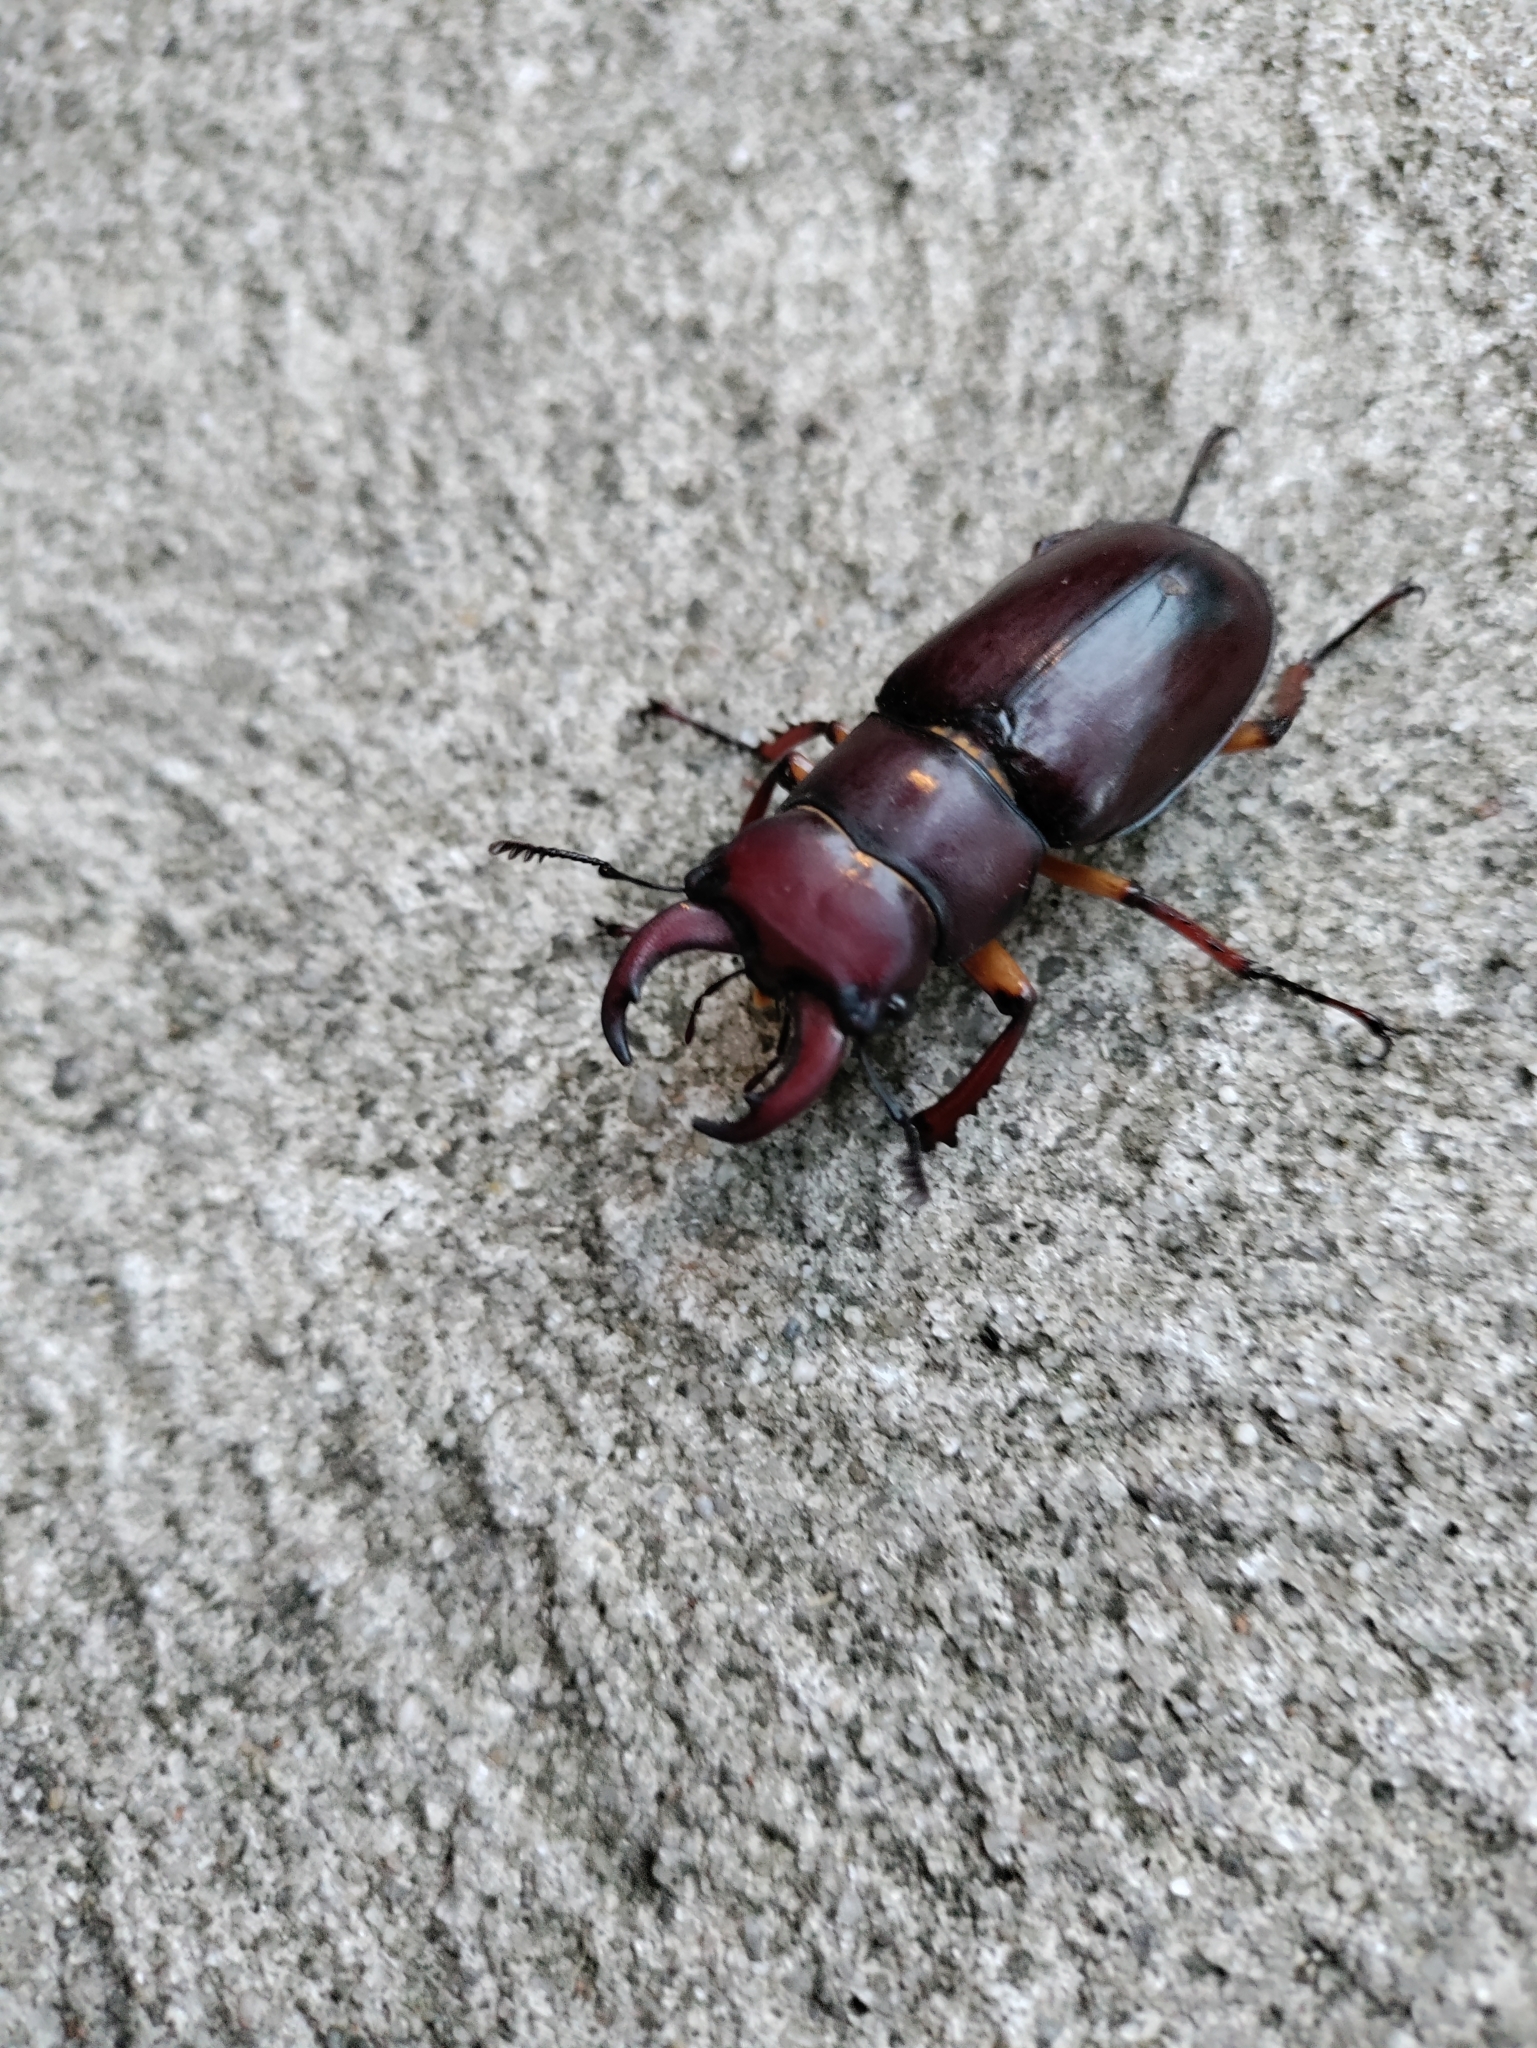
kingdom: Animalia
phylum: Arthropoda
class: Insecta
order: Coleoptera
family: Lucanidae
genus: Lucanus
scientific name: Lucanus capreolus
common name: Stag beetle
